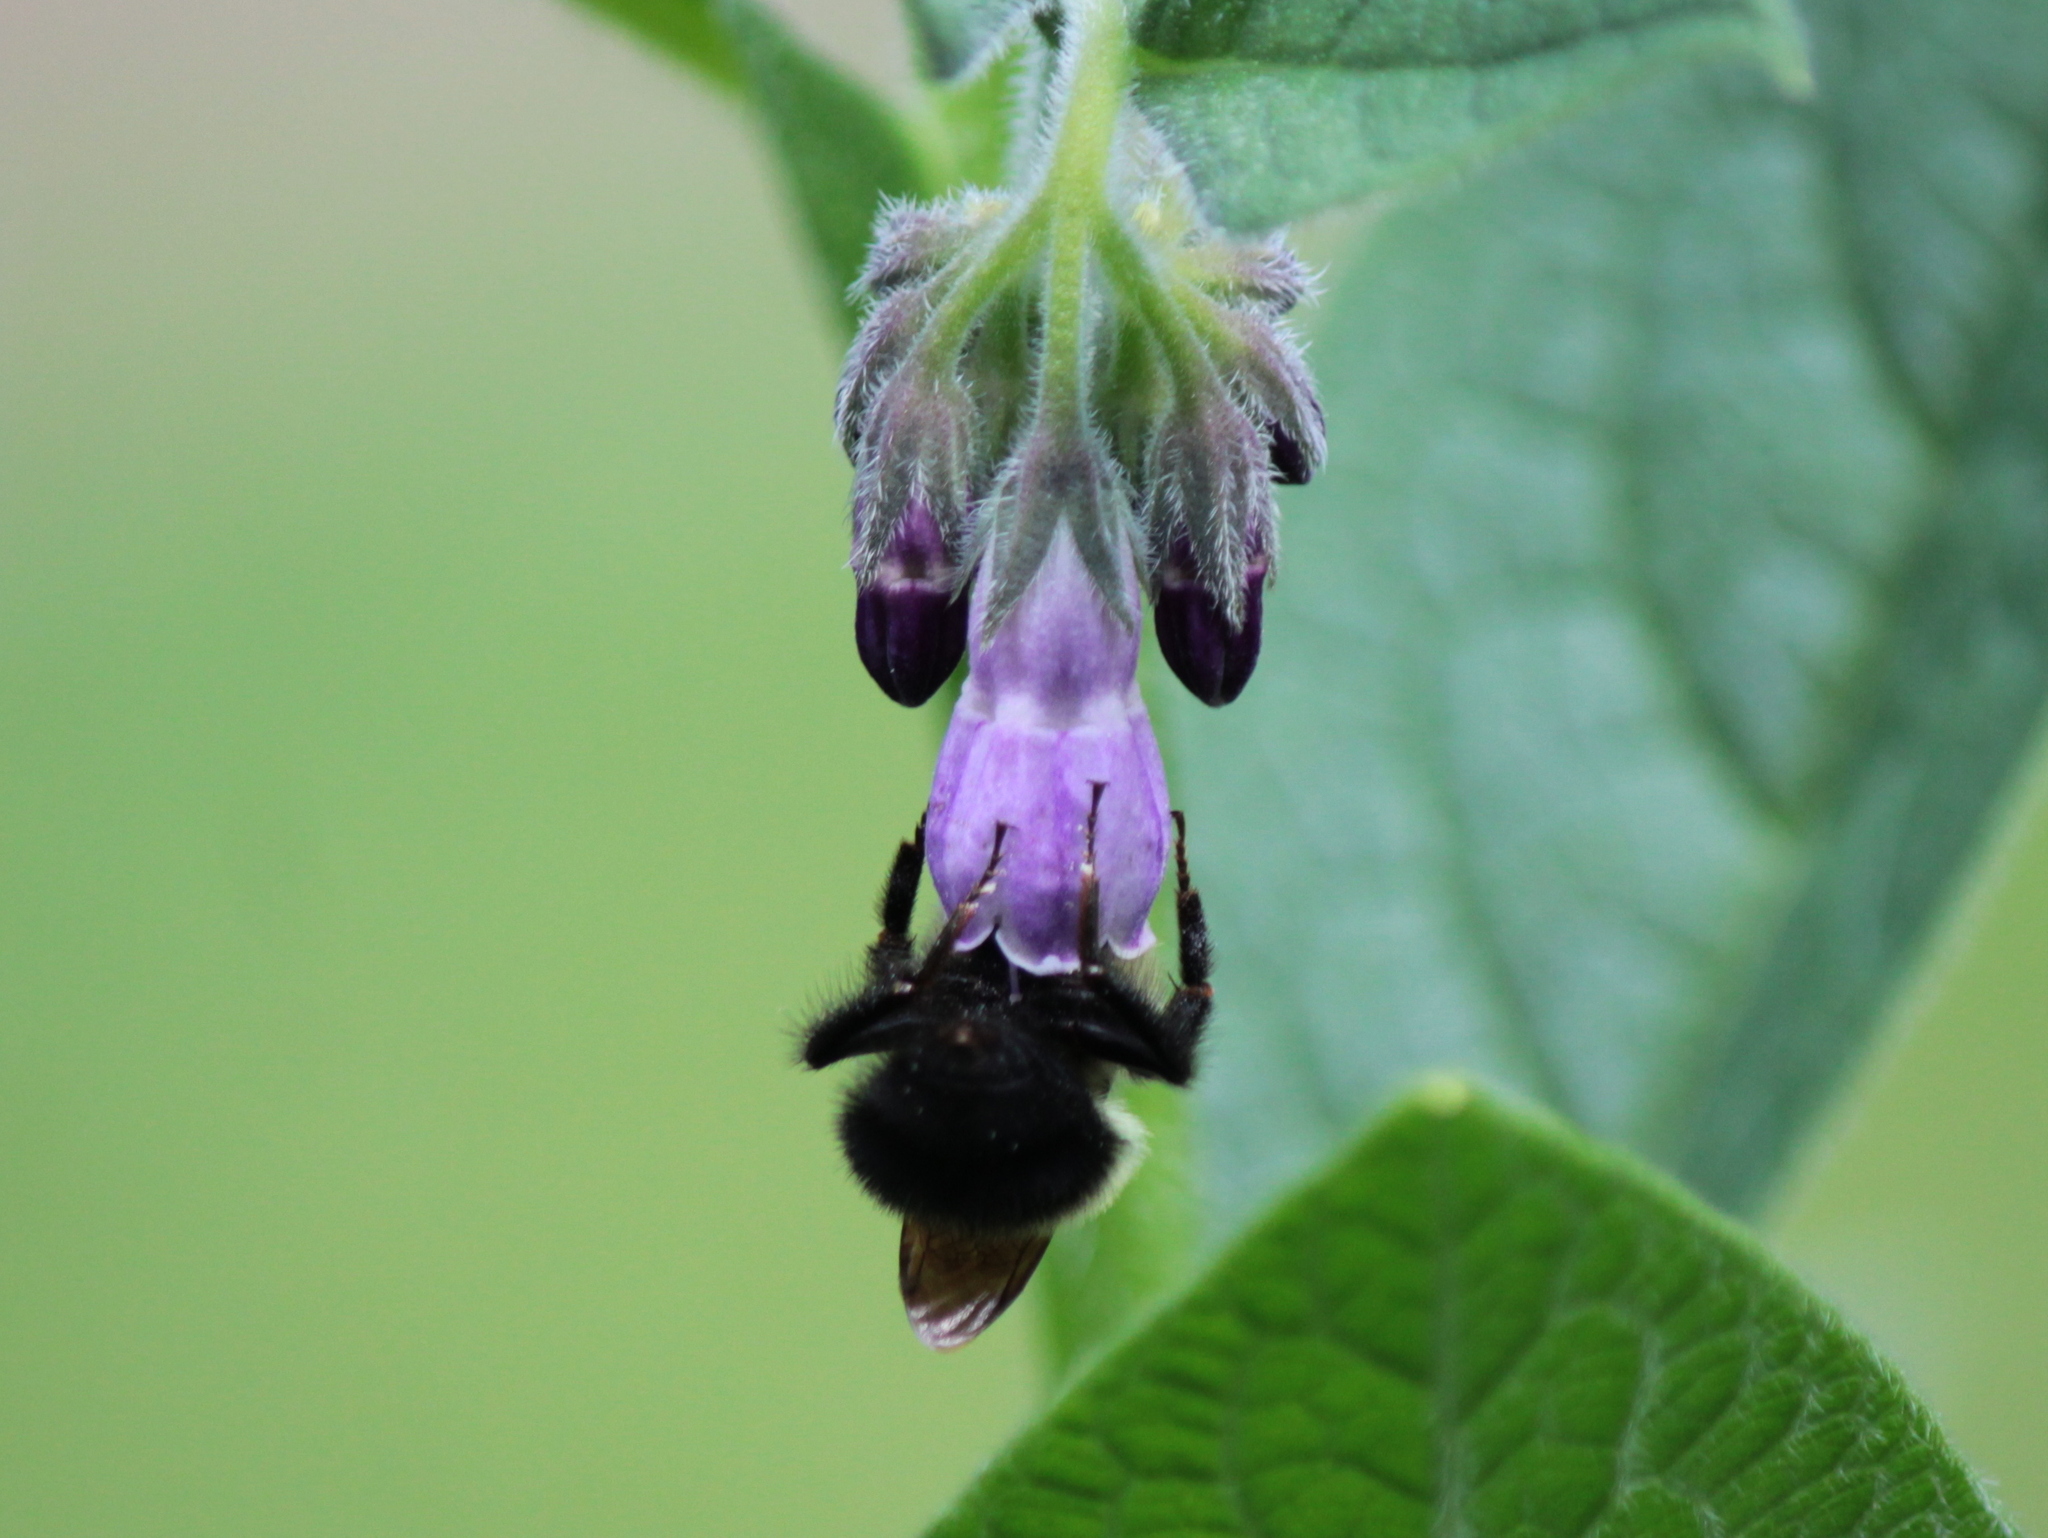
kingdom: Animalia
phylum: Arthropoda
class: Insecta
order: Hymenoptera
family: Apidae
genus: Bombus
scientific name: Bombus vagans
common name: Half-black bumble bee
